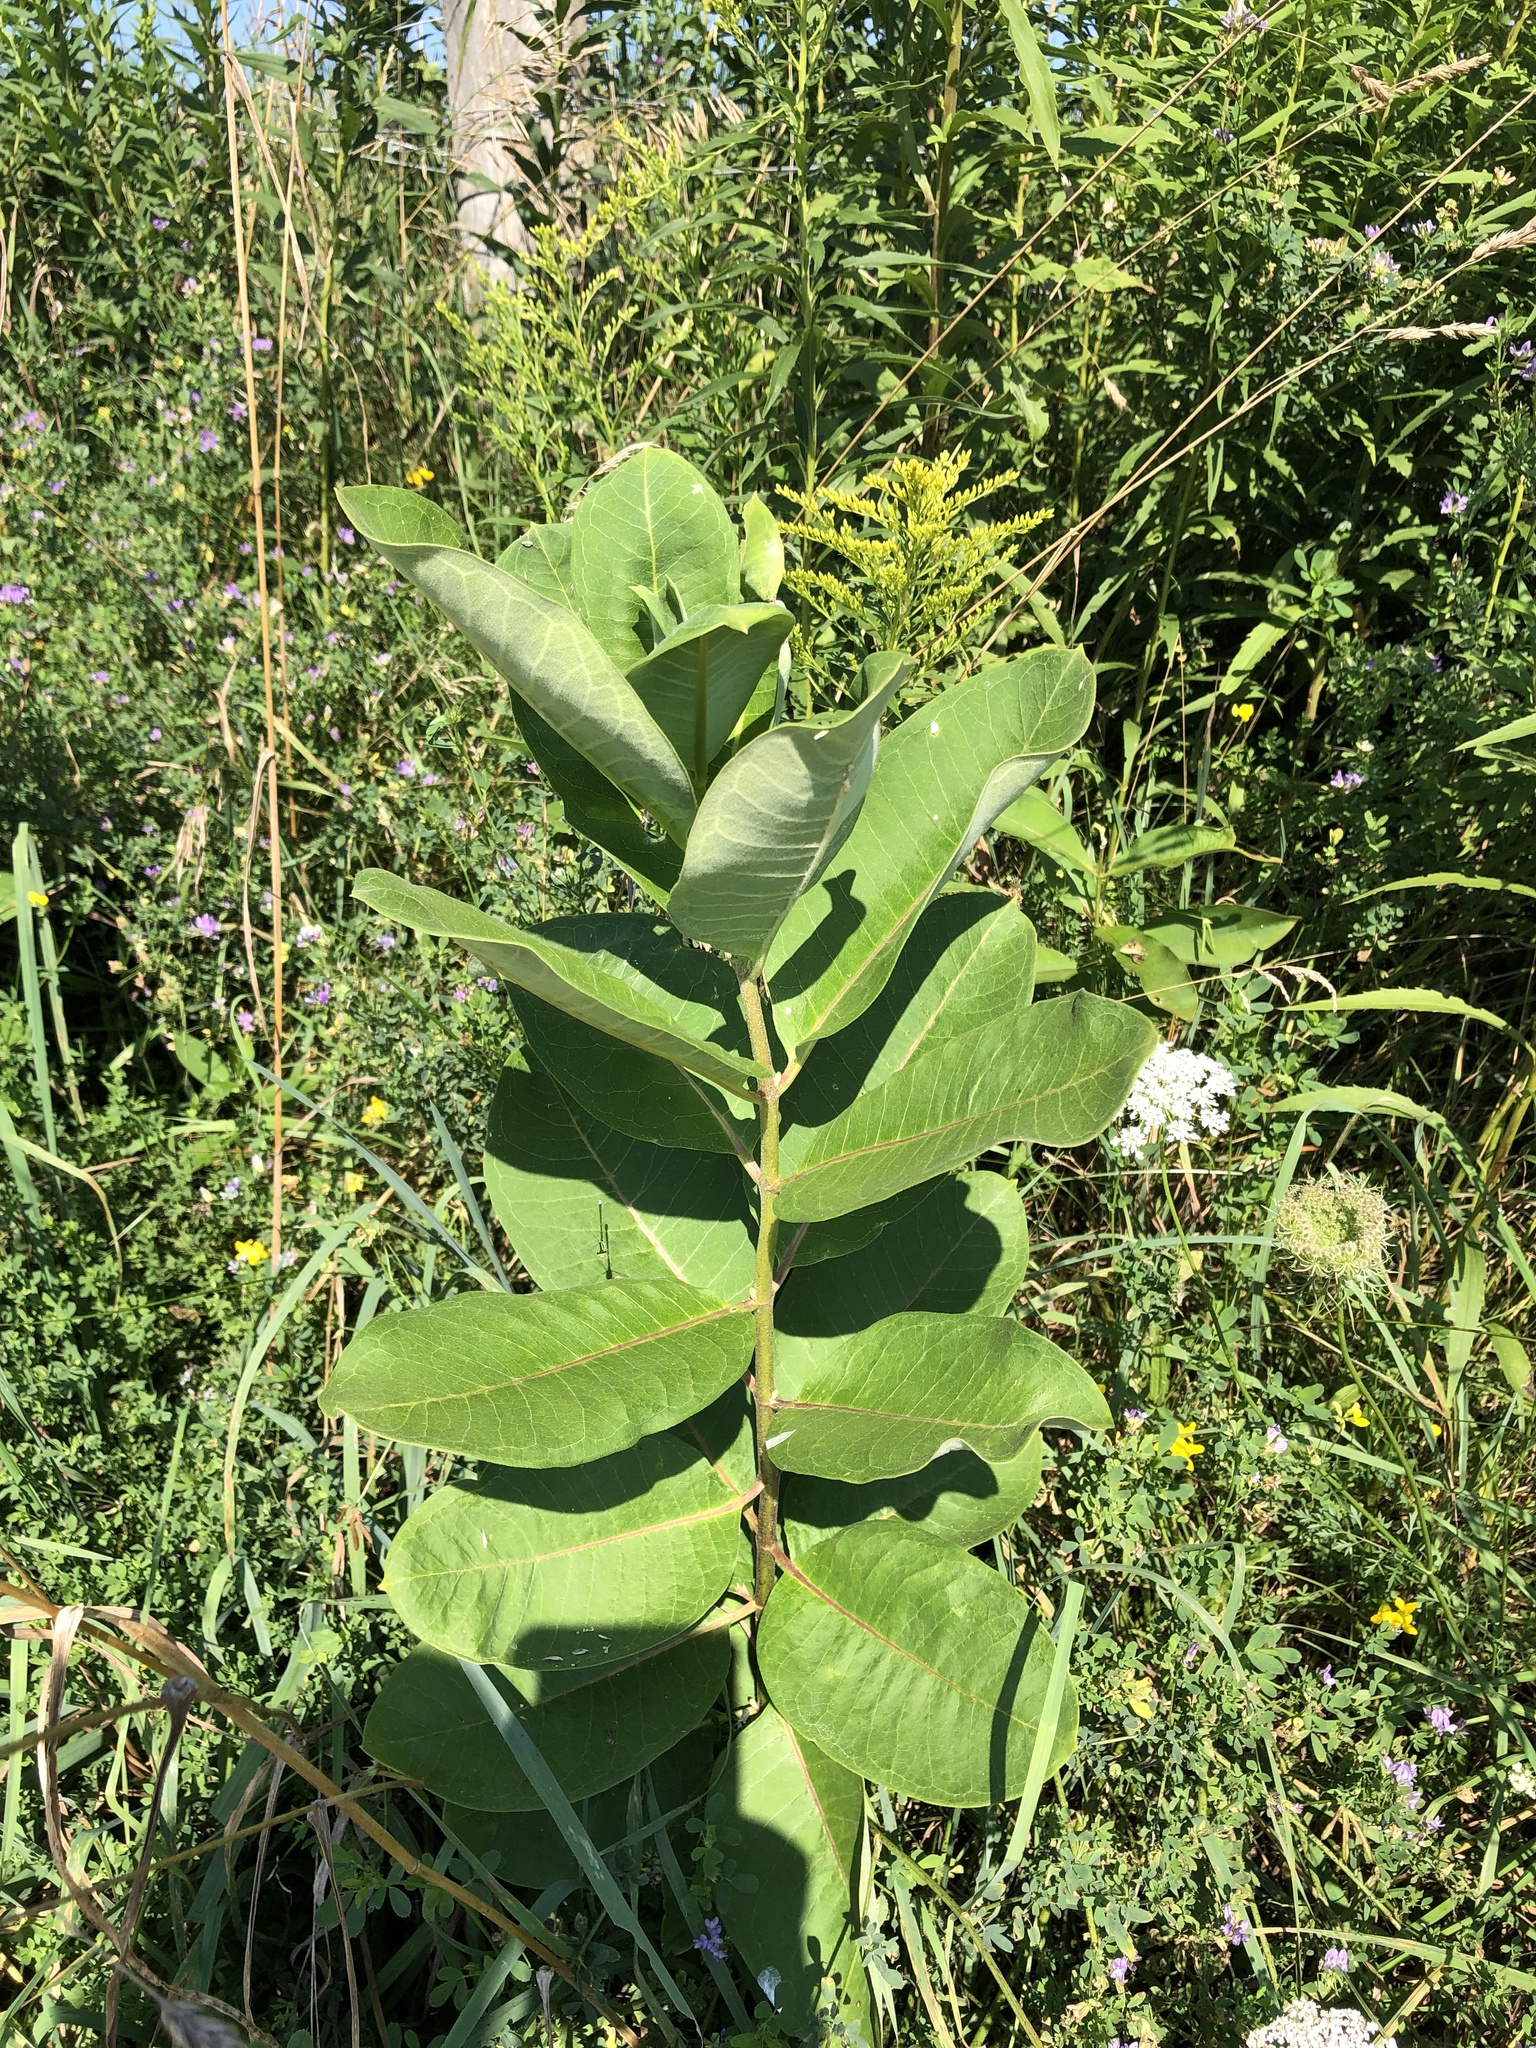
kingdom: Plantae
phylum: Tracheophyta
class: Magnoliopsida
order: Gentianales
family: Apocynaceae
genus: Asclepias
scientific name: Asclepias syriaca
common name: Common milkweed
